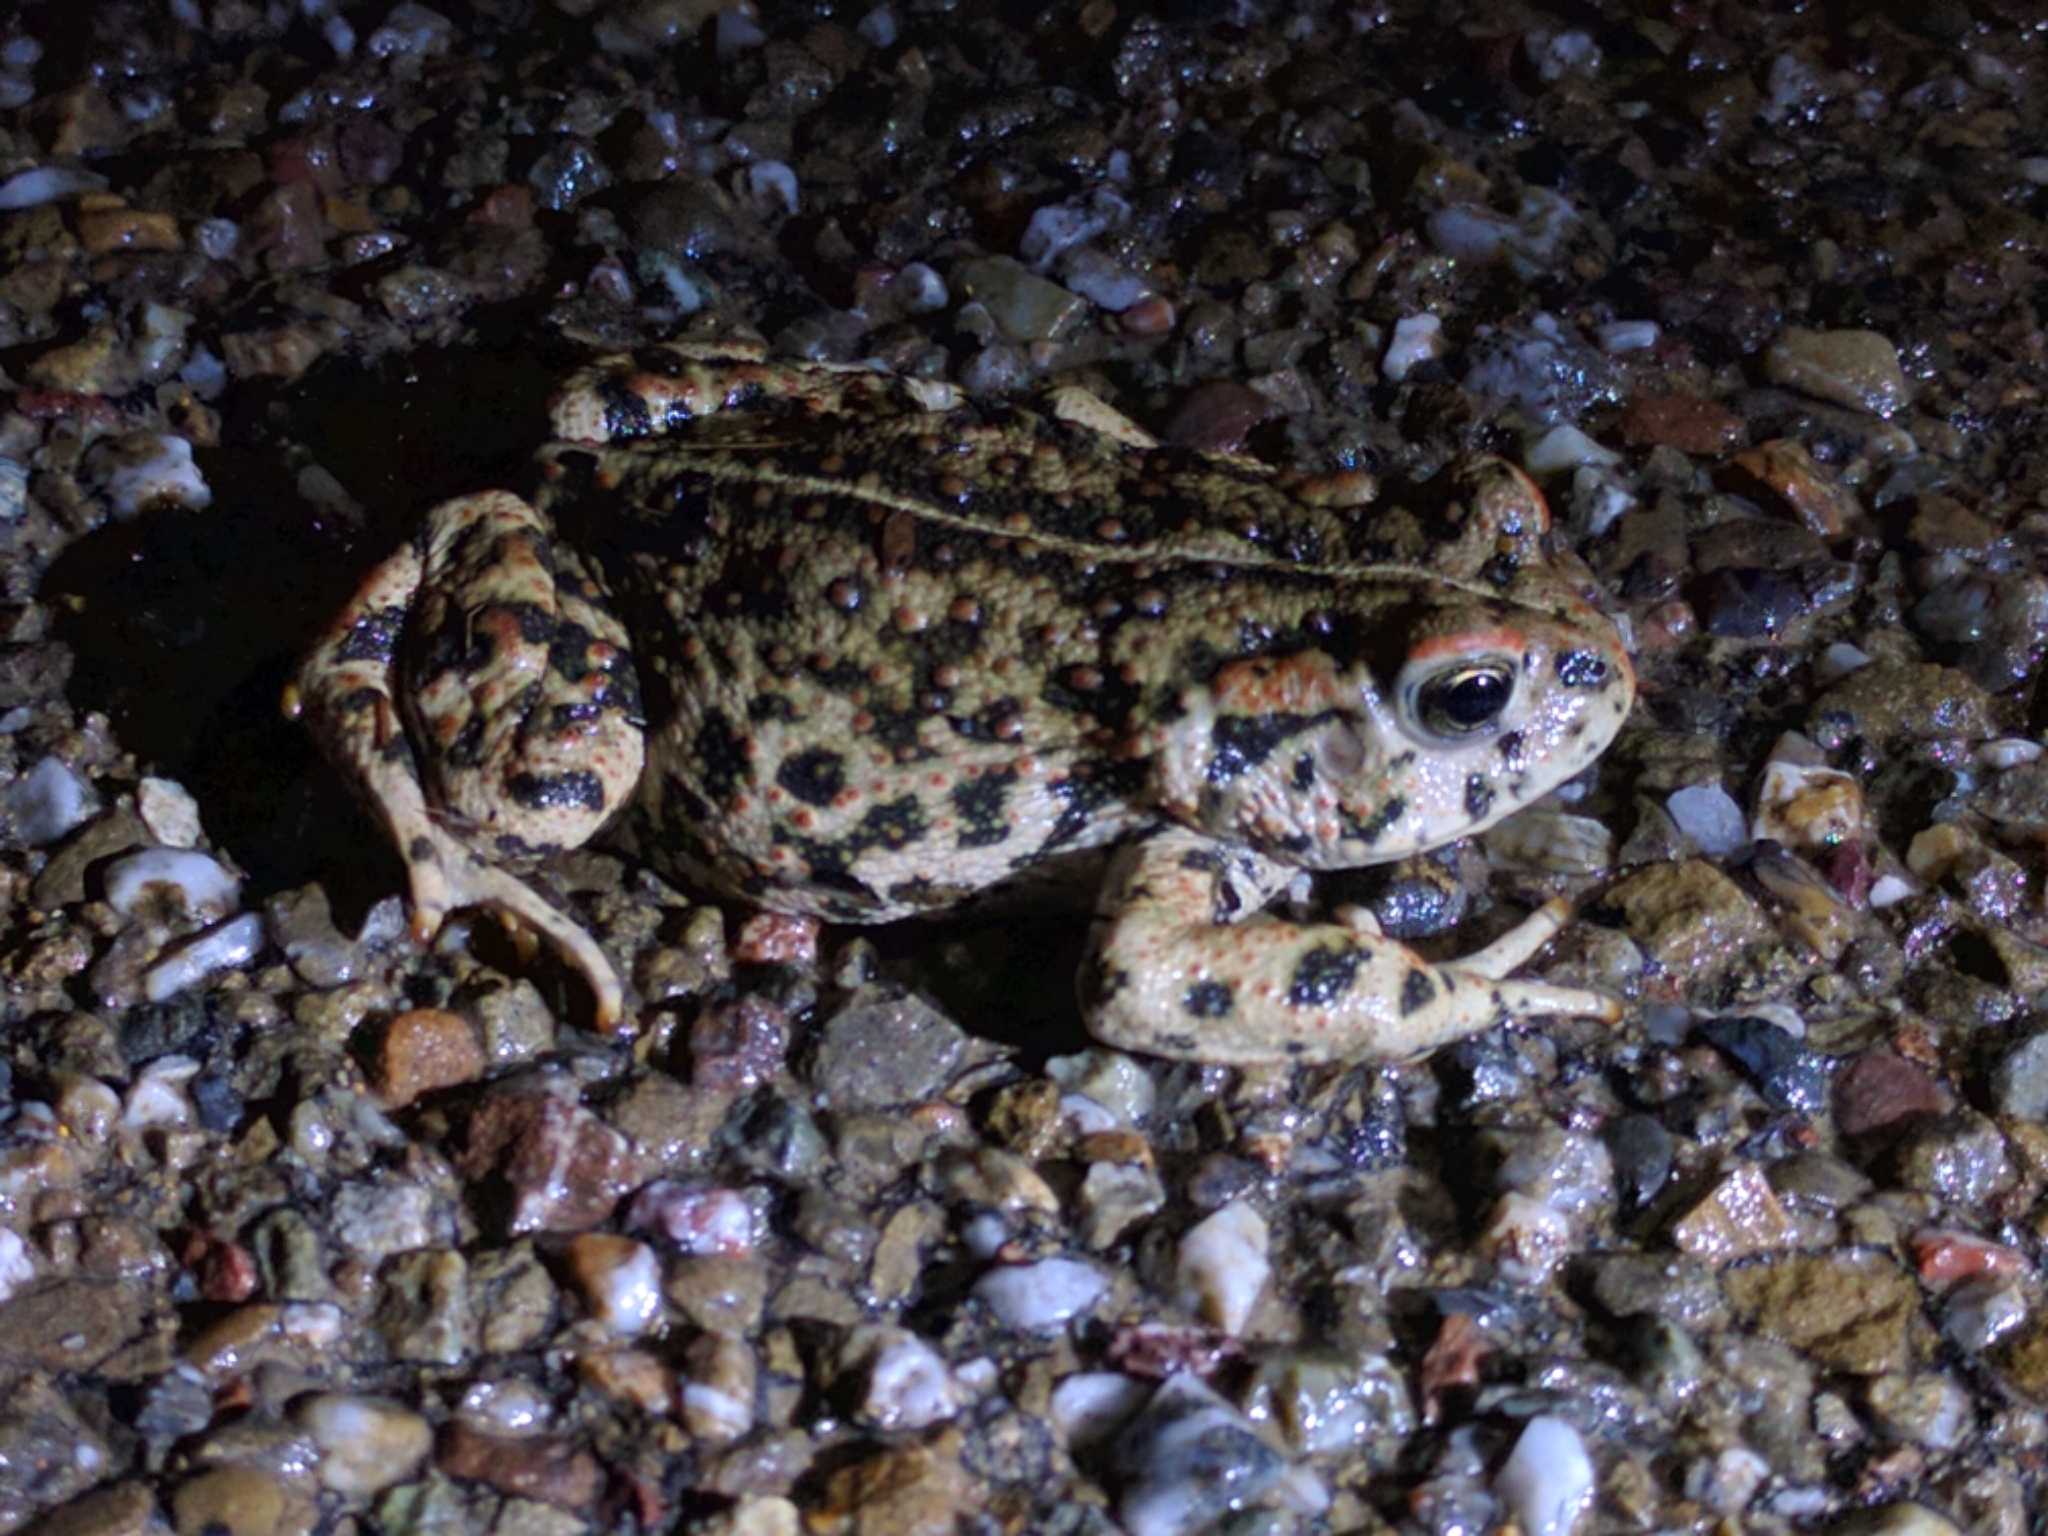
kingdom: Animalia
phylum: Chordata
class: Amphibia
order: Anura
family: Bufonidae
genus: Anaxyrus
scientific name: Anaxyrus boreas
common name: Western toad
